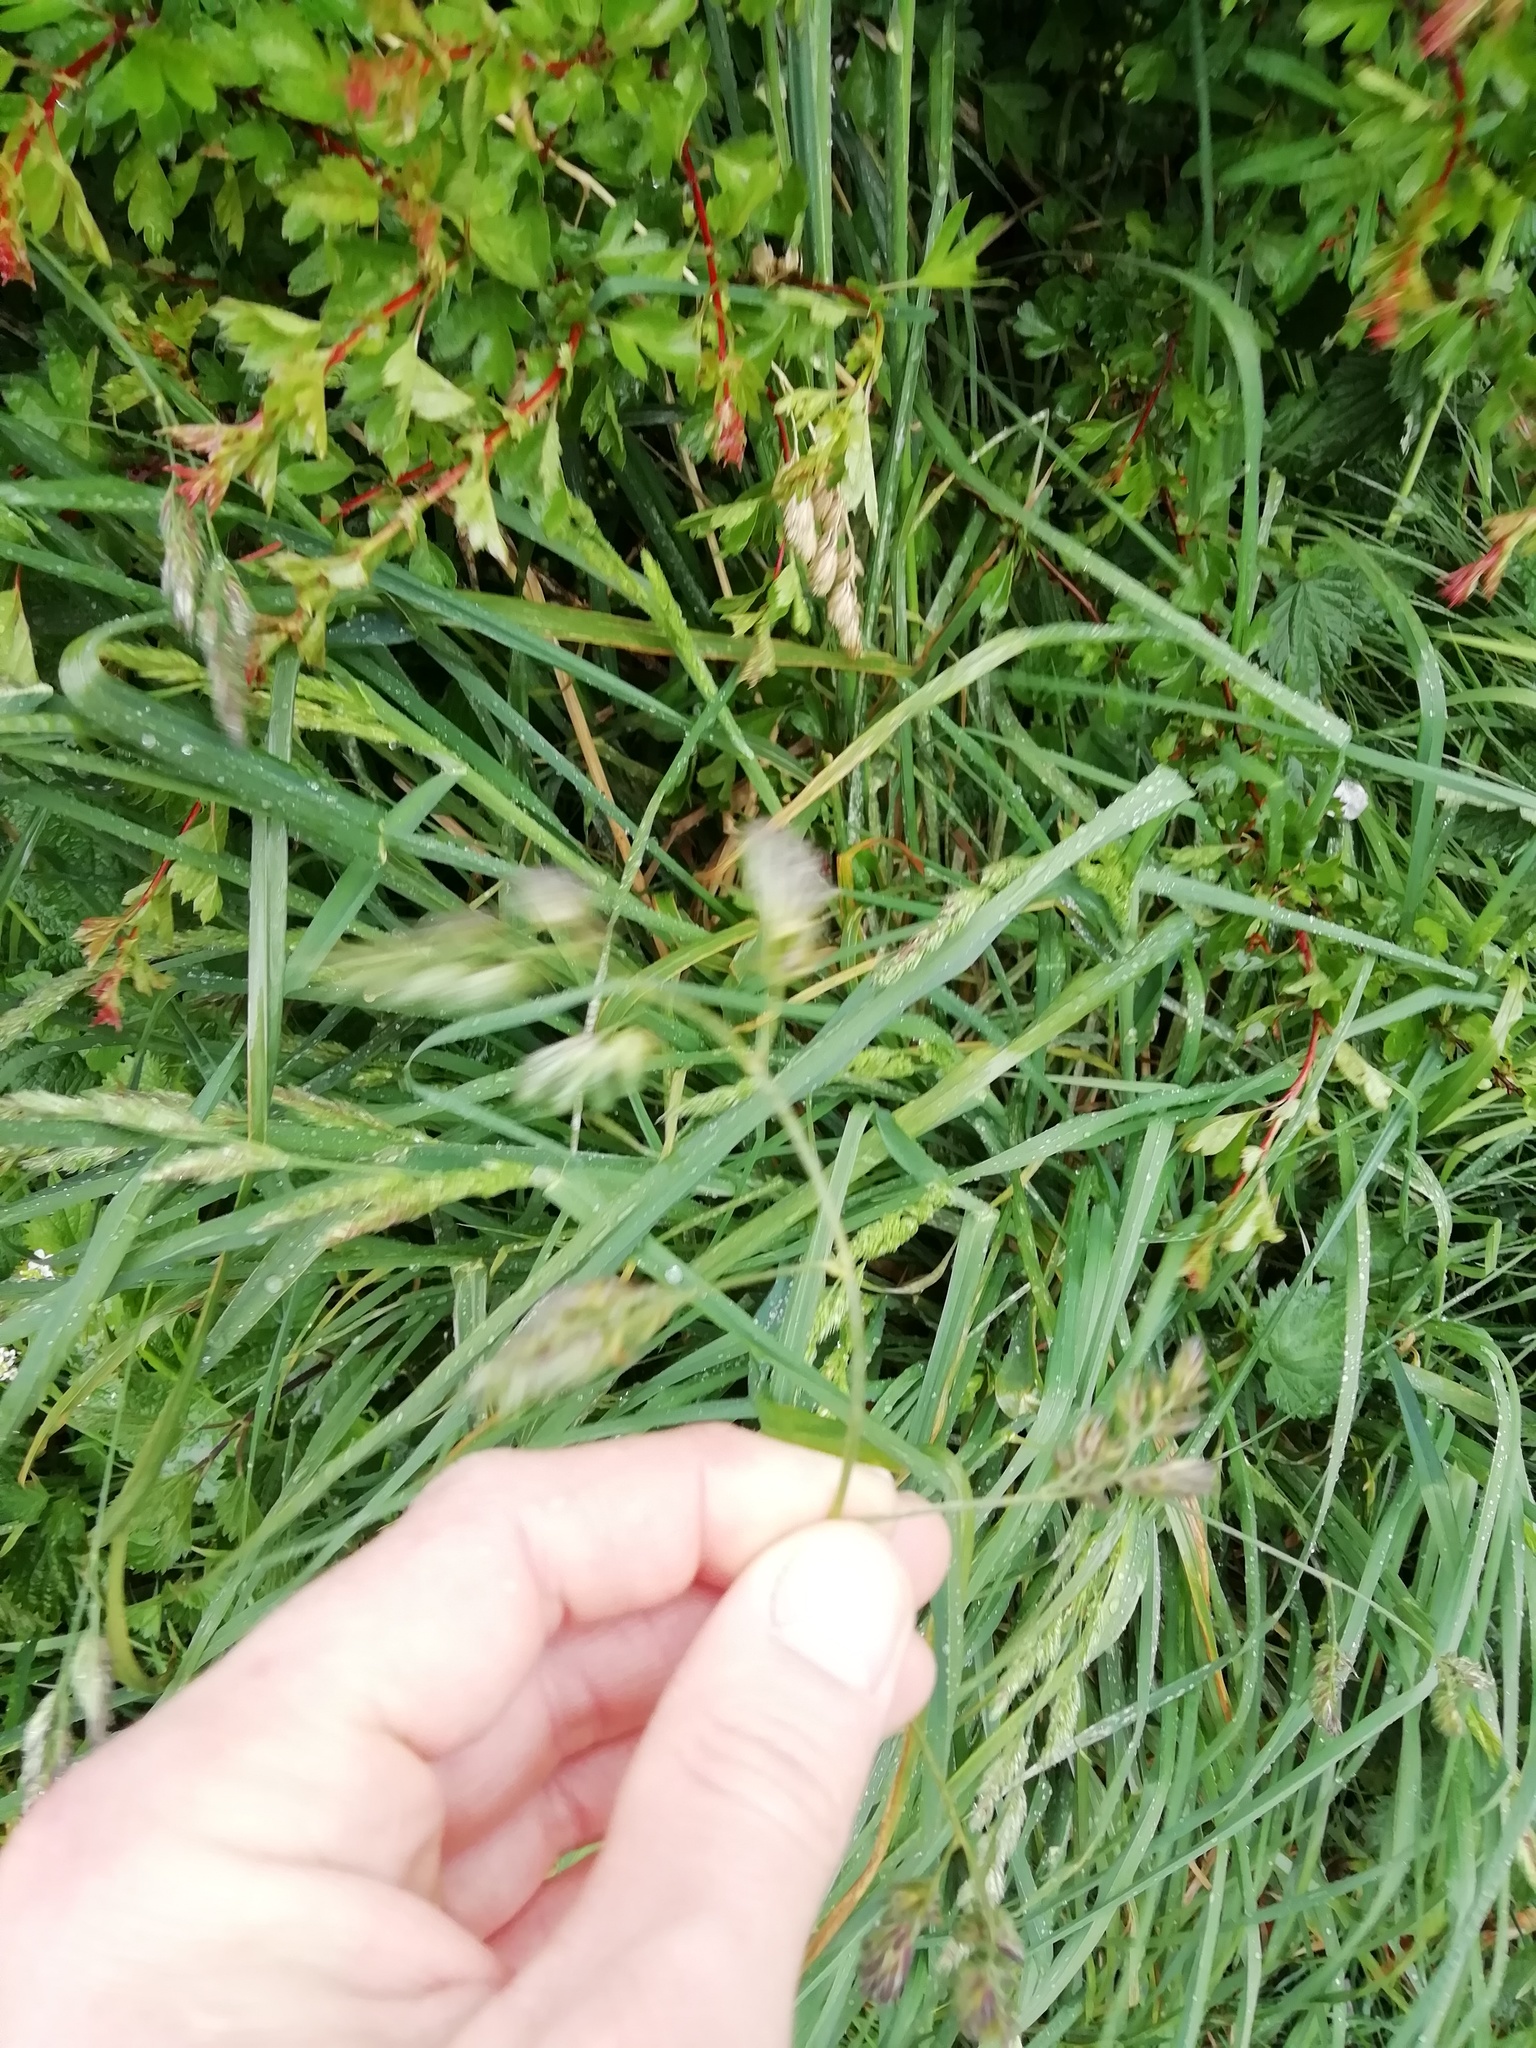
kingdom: Plantae
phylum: Tracheophyta
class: Liliopsida
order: Poales
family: Poaceae
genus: Dactylis
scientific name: Dactylis glomerata
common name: Orchardgrass
